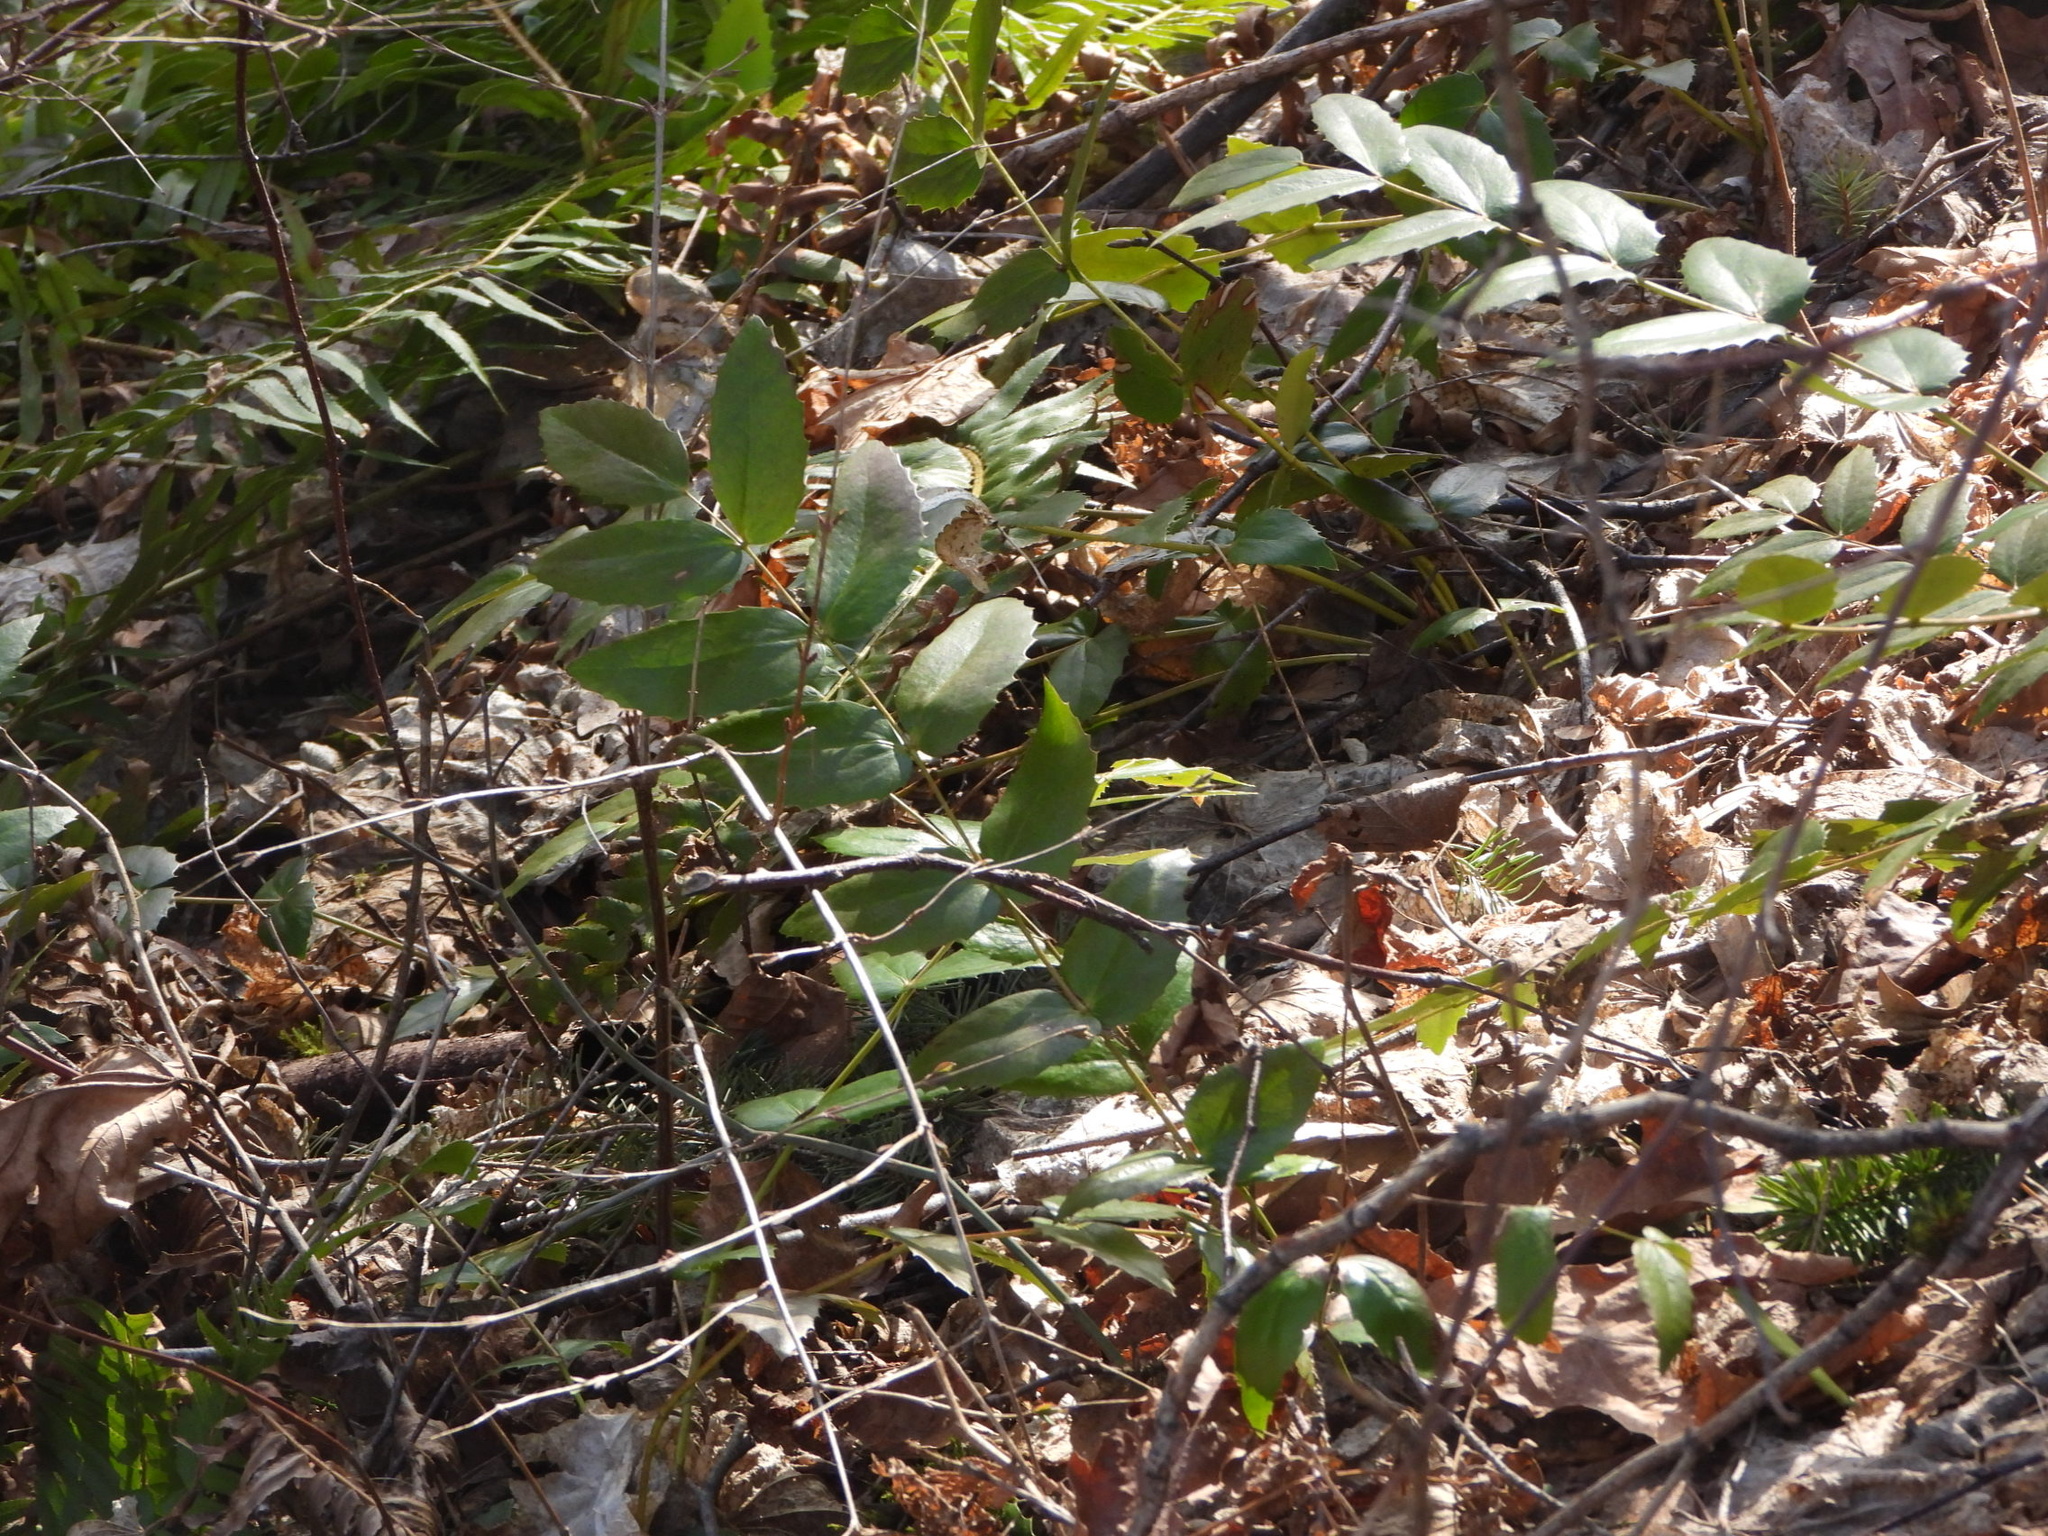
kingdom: Plantae
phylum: Tracheophyta
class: Magnoliopsida
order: Ranunculales
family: Berberidaceae
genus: Mahonia
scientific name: Mahonia nervosa
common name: Cascade oregon-grape
